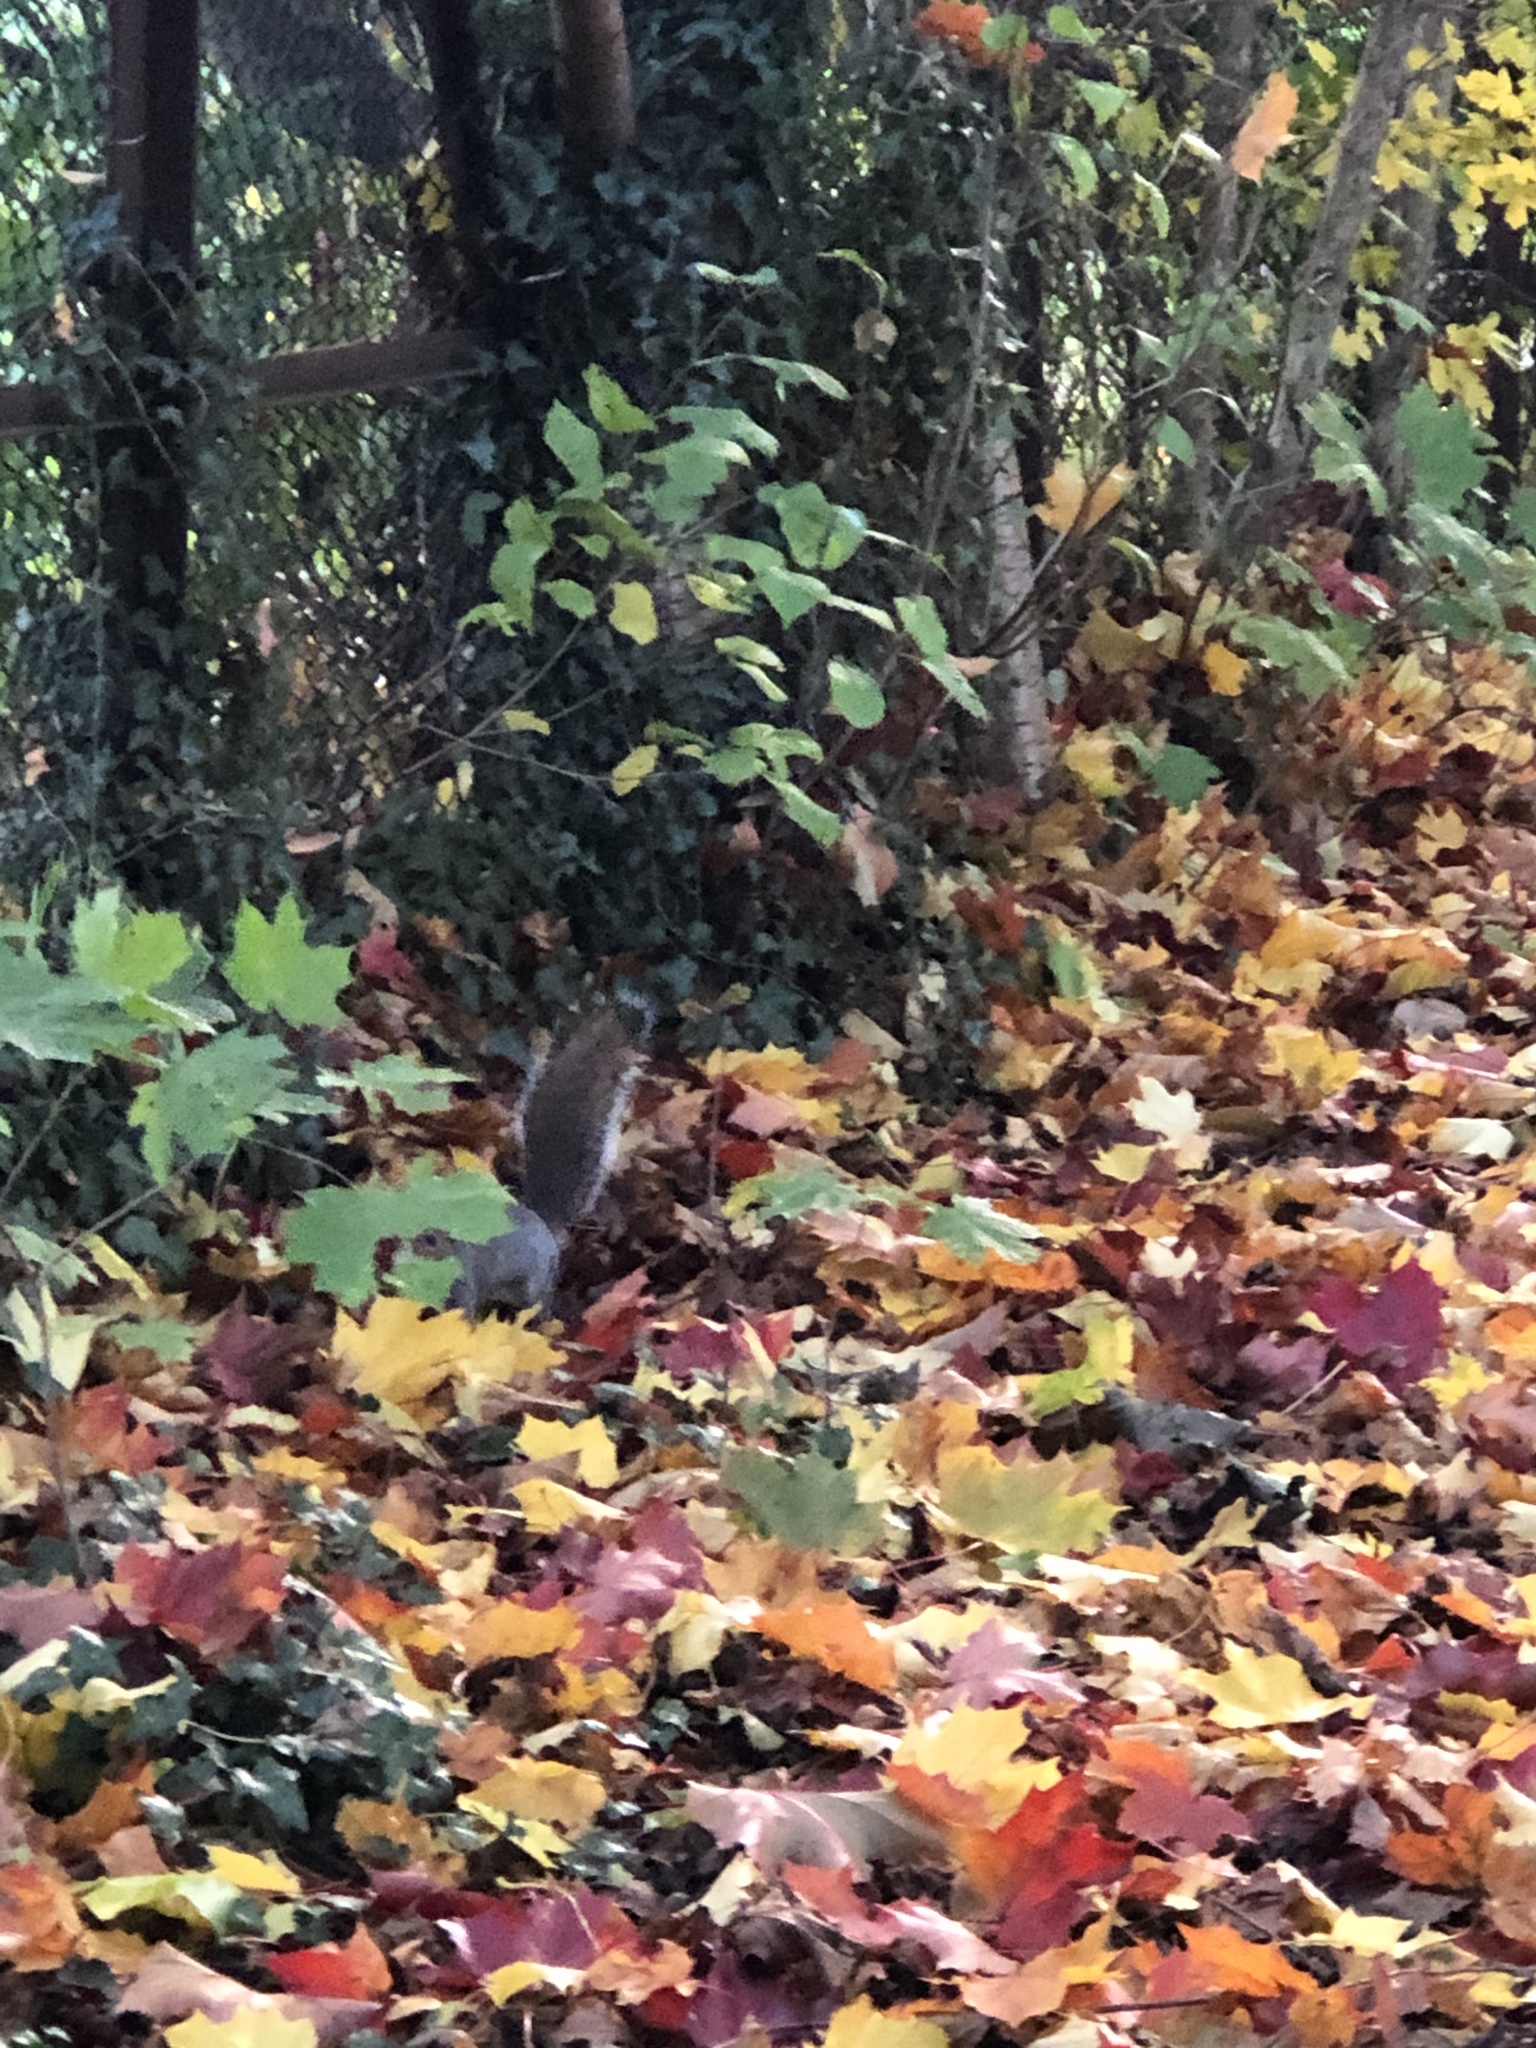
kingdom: Animalia
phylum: Chordata
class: Mammalia
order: Rodentia
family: Sciuridae
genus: Sciurus
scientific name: Sciurus carolinensis
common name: Eastern gray squirrel
